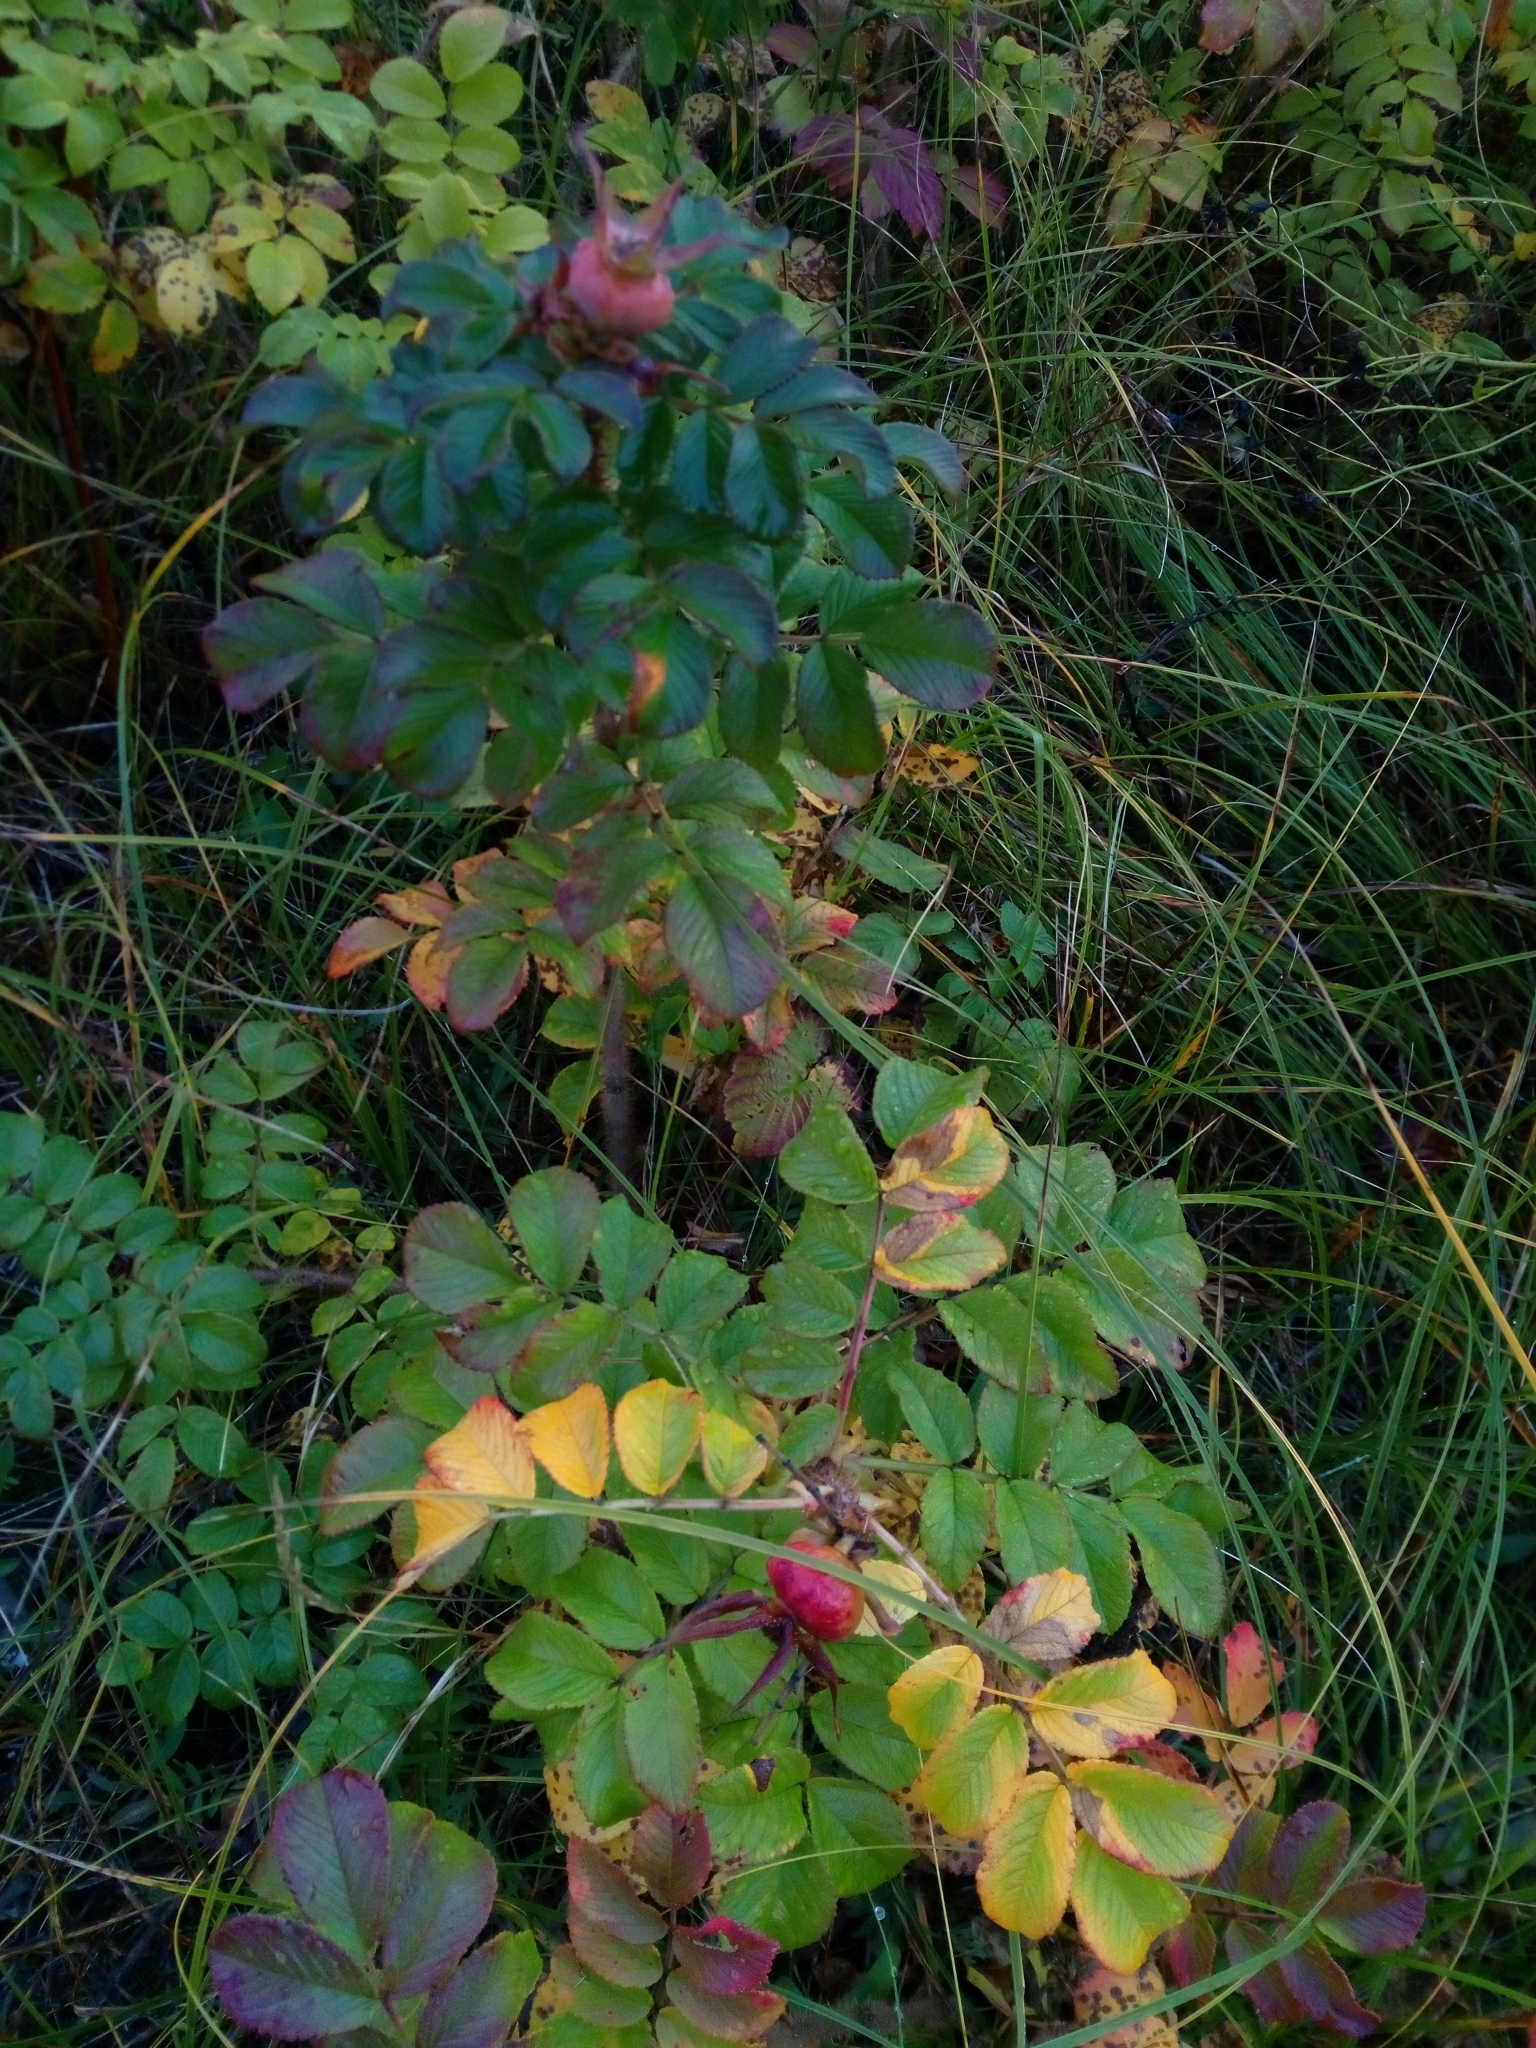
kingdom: Plantae
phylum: Tracheophyta
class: Magnoliopsida
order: Rosales
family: Rosaceae
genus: Rosa
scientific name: Rosa rugosa
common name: Japanese rose
